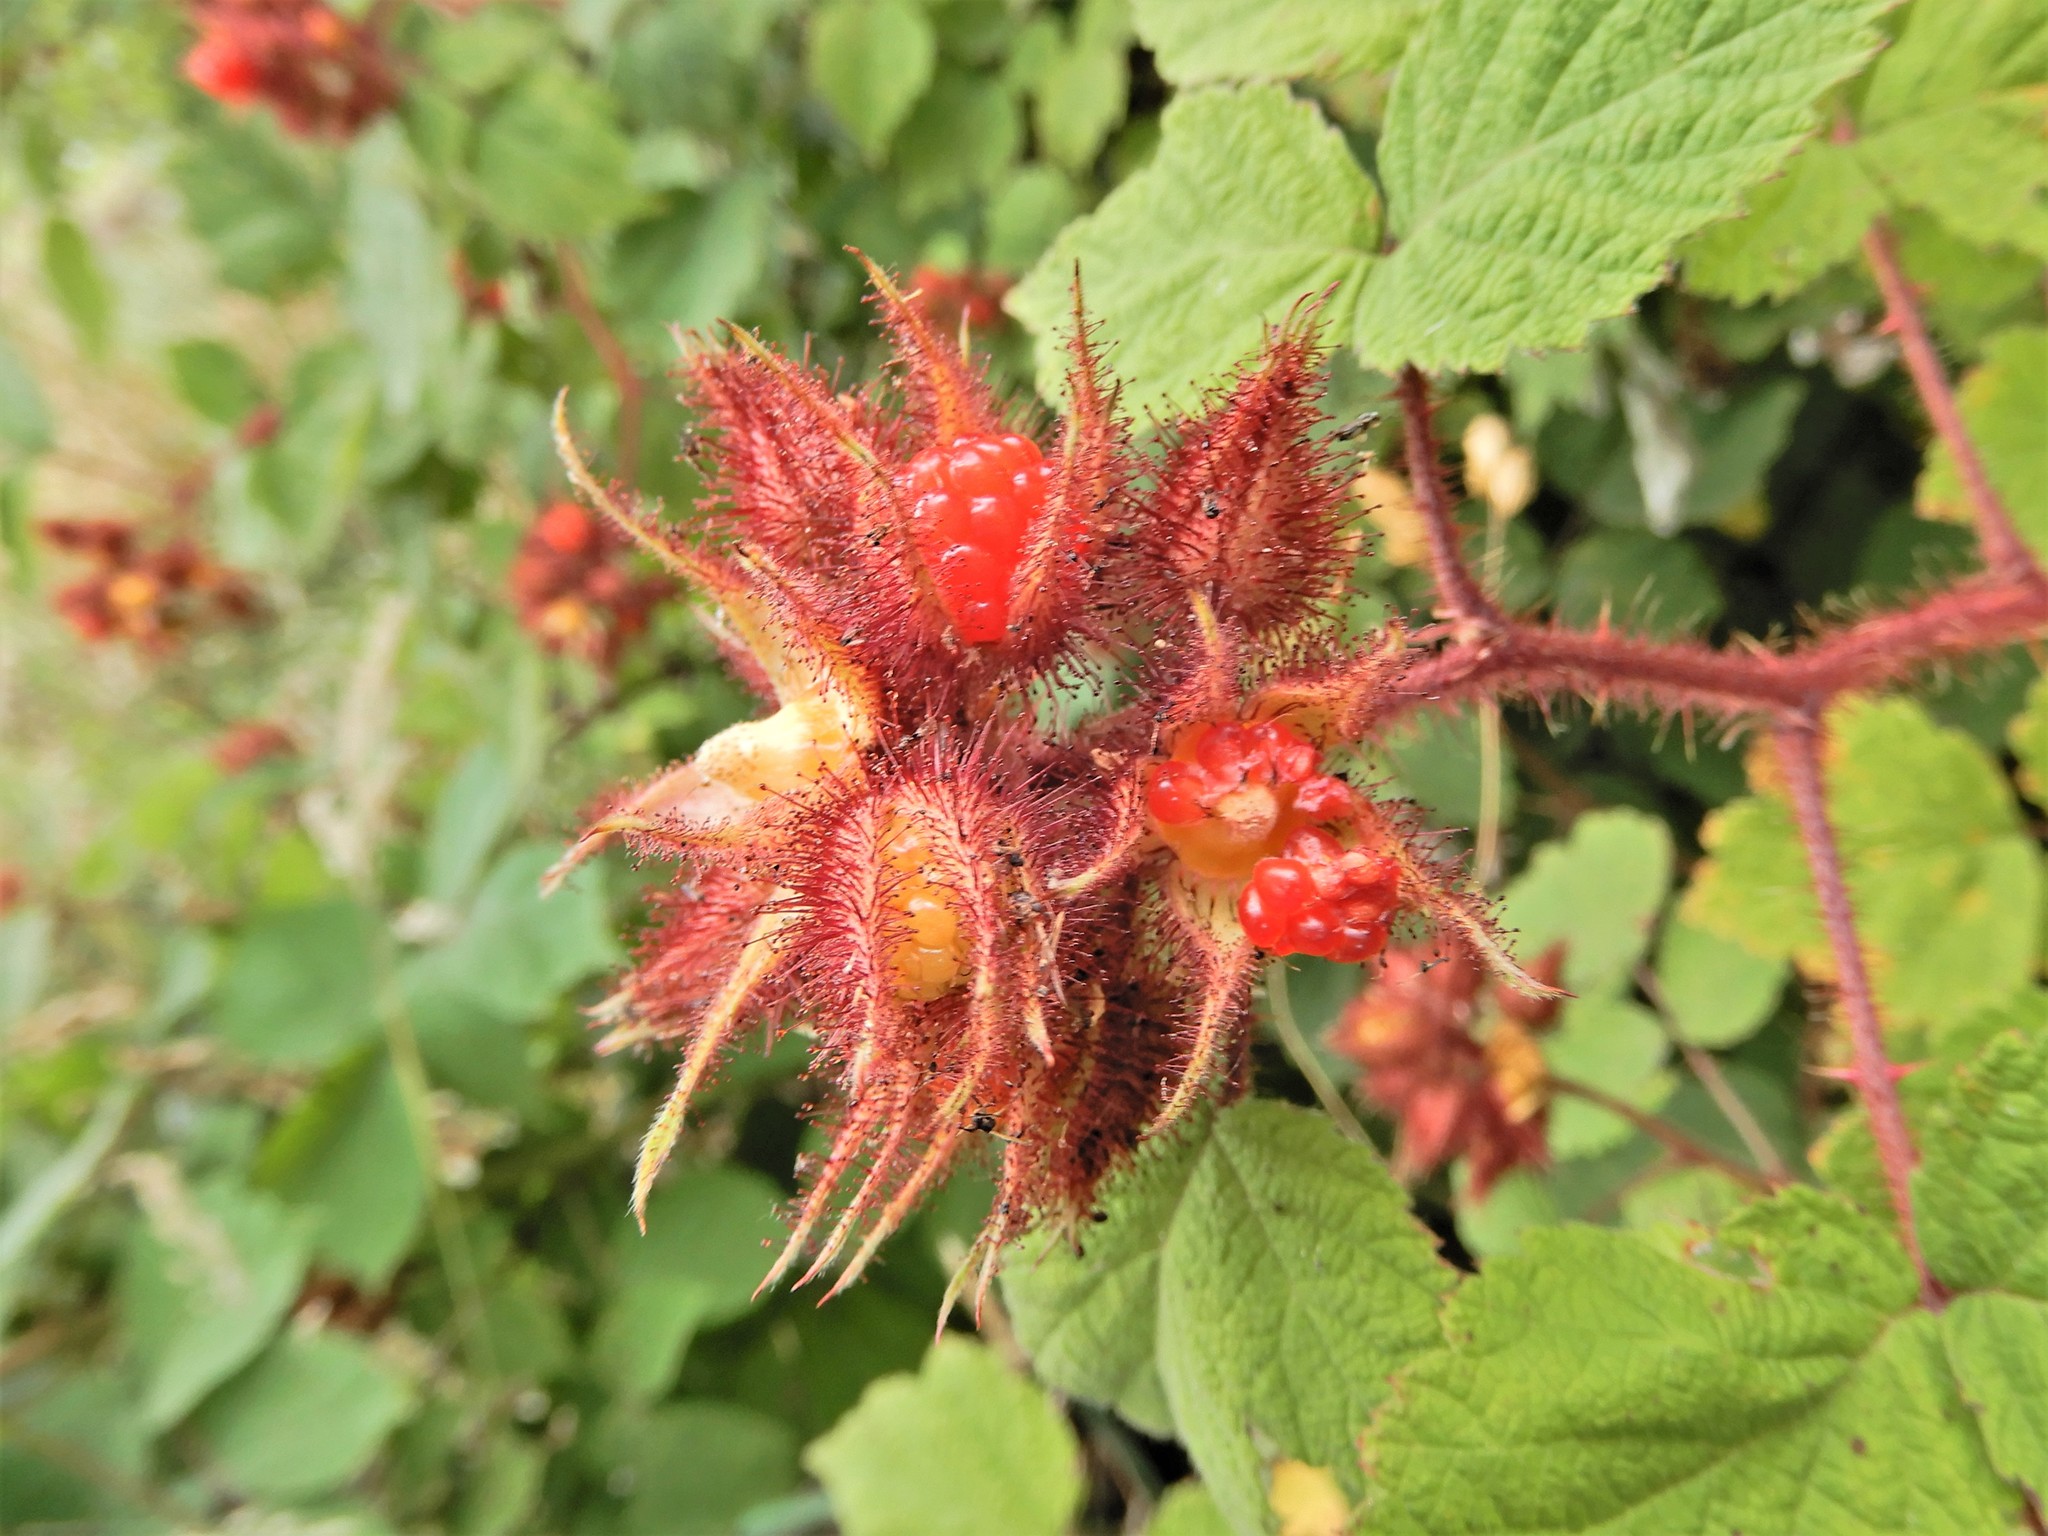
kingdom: Plantae
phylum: Tracheophyta
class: Magnoliopsida
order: Rosales
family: Rosaceae
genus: Rubus
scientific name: Rubus phoenicolasius
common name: Japanese wineberry
